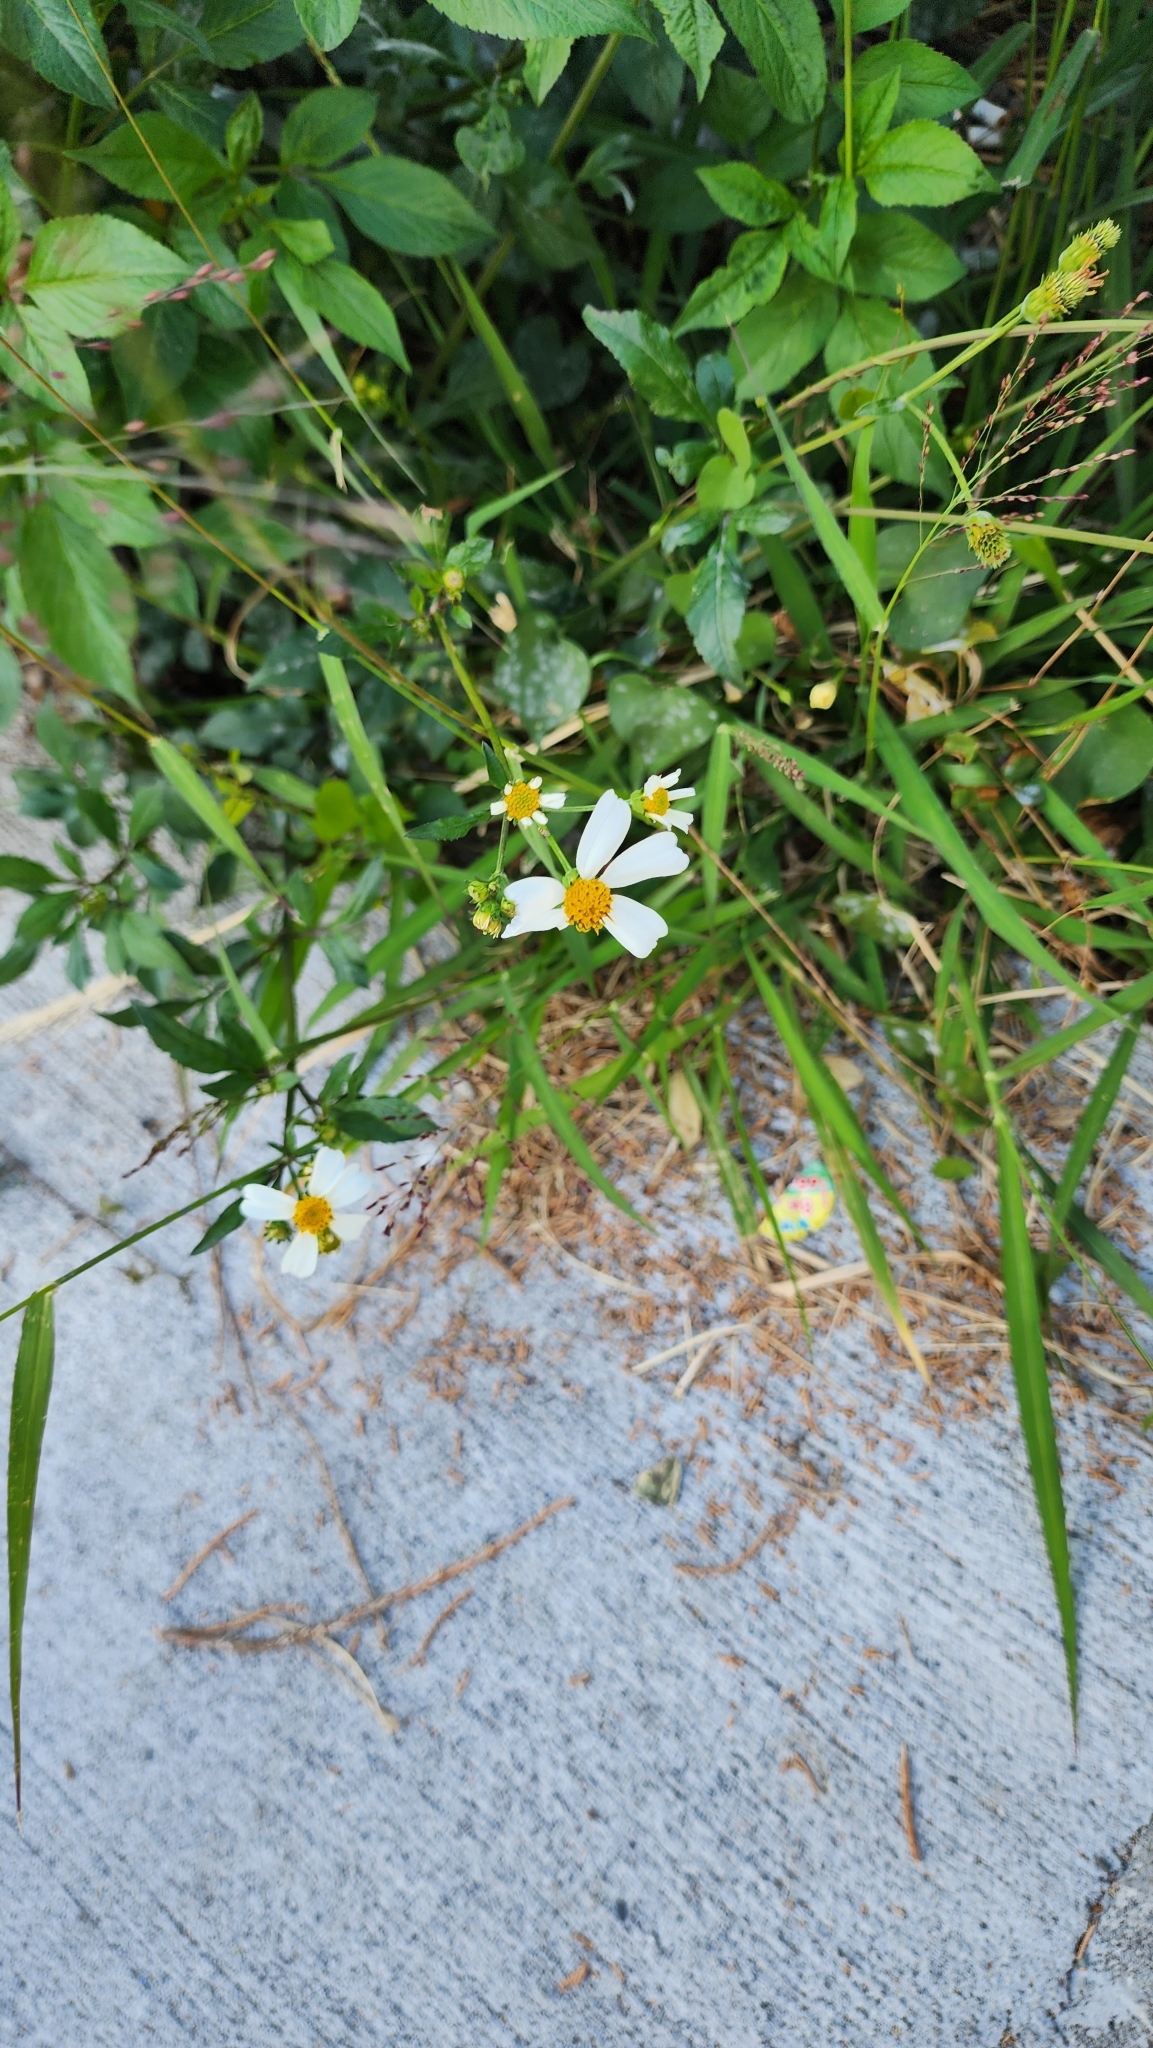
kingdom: Plantae
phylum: Tracheophyta
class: Magnoliopsida
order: Asterales
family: Asteraceae
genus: Bidens
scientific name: Bidens alba
